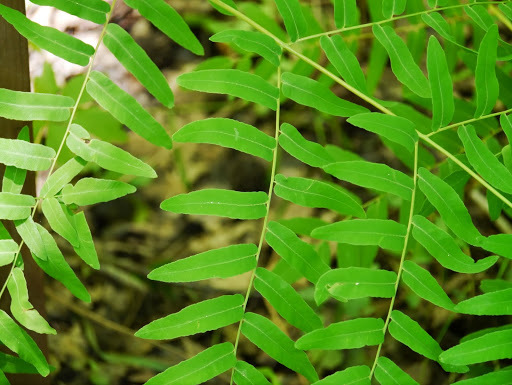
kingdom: Plantae
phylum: Tracheophyta
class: Polypodiopsida
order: Osmundales
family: Osmundaceae
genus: Osmunda
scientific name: Osmunda spectabilis
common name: American royal fern
